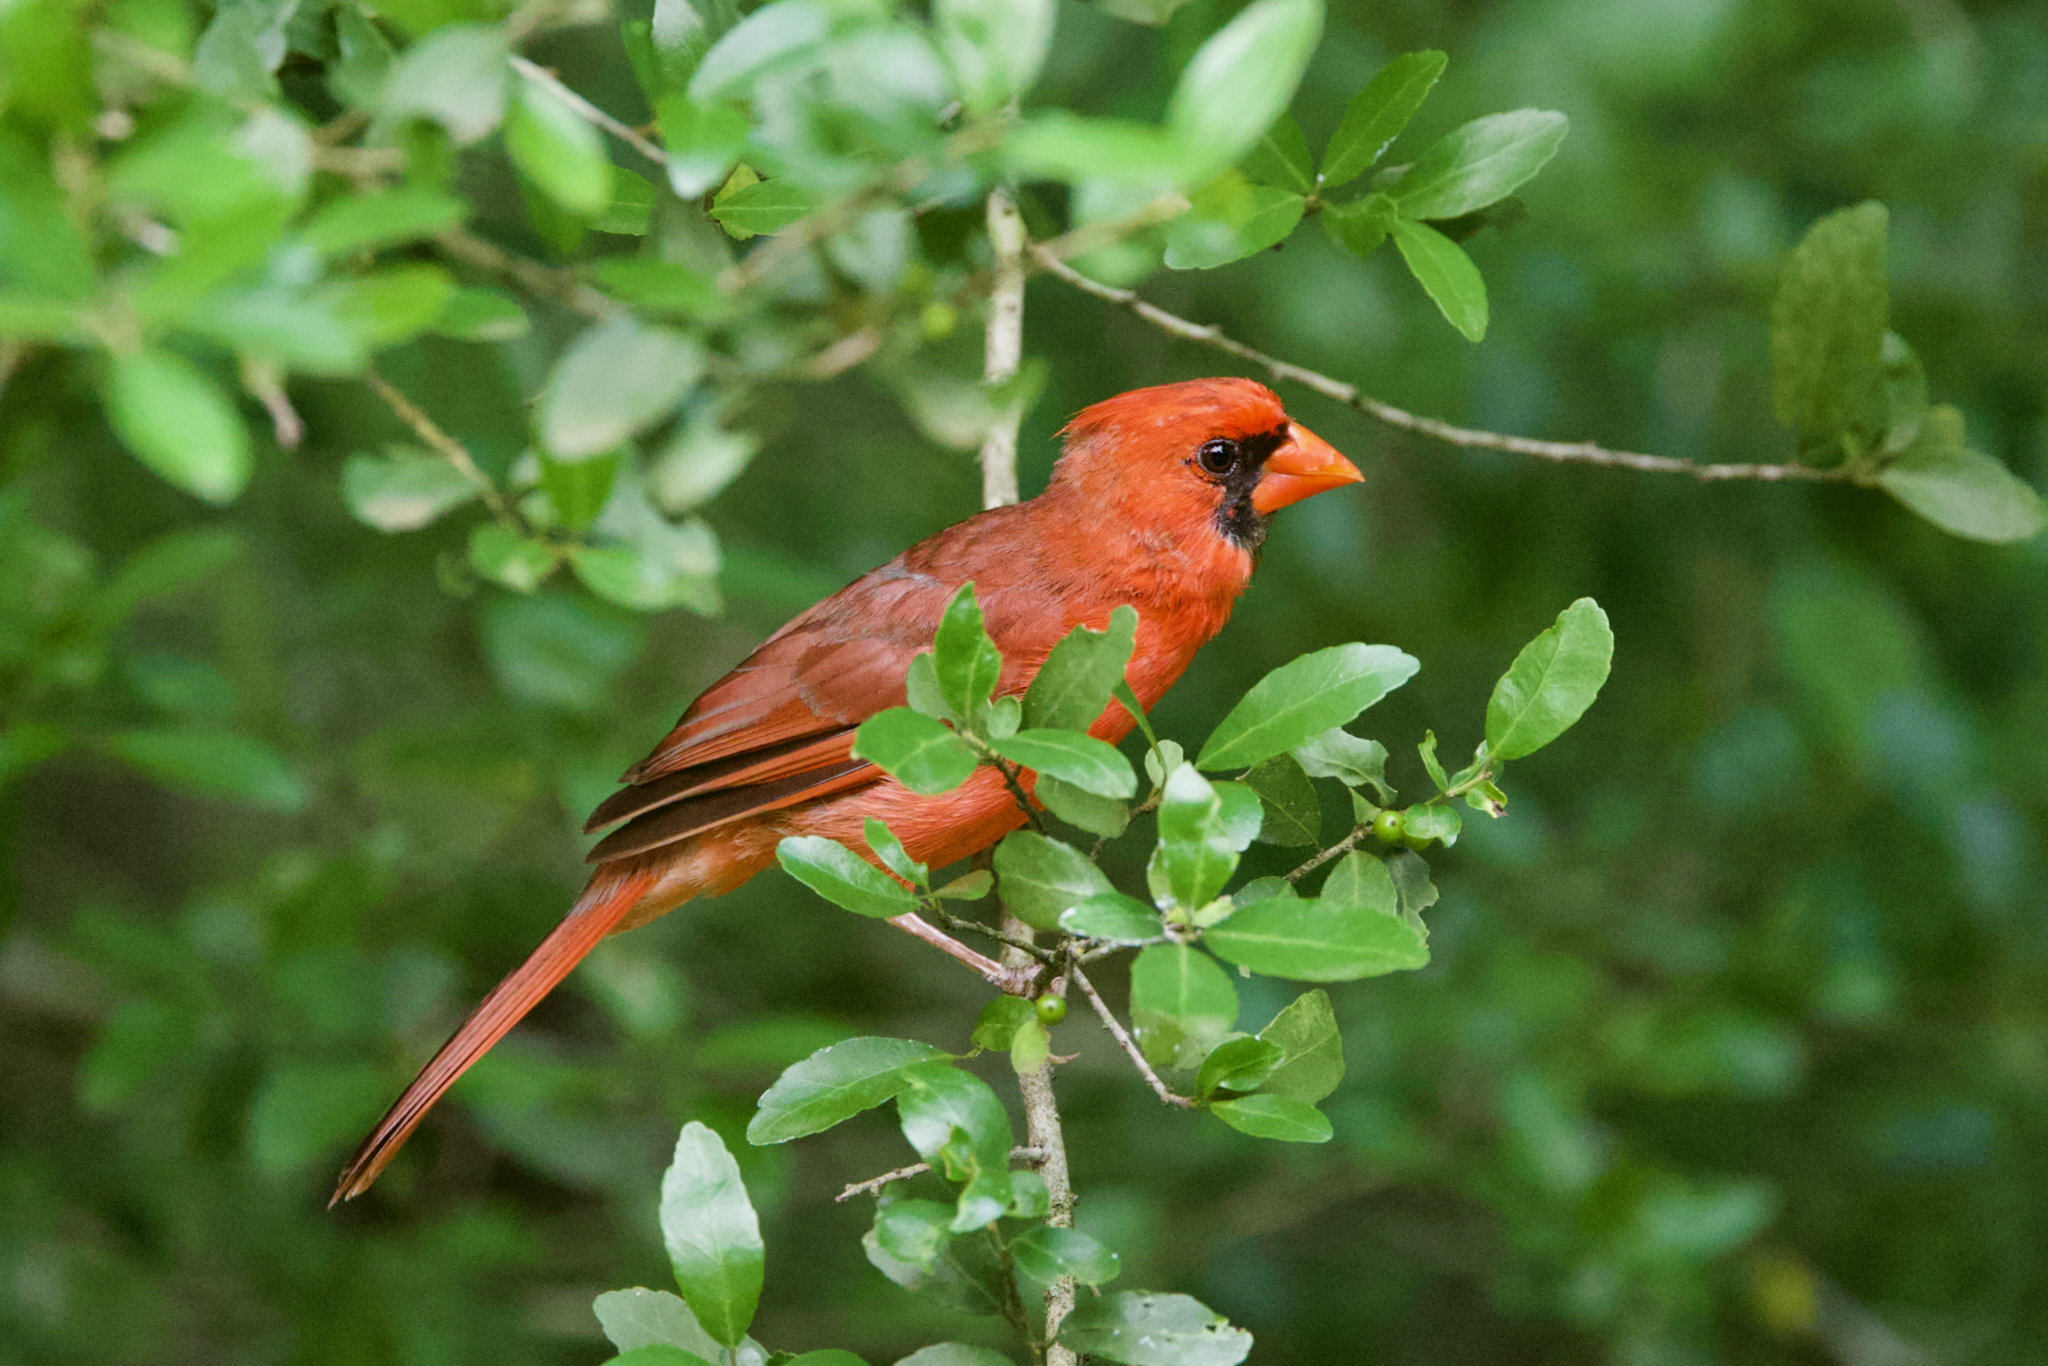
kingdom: Animalia
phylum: Chordata
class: Aves
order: Passeriformes
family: Cardinalidae
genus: Cardinalis
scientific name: Cardinalis cardinalis
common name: Northern cardinal
